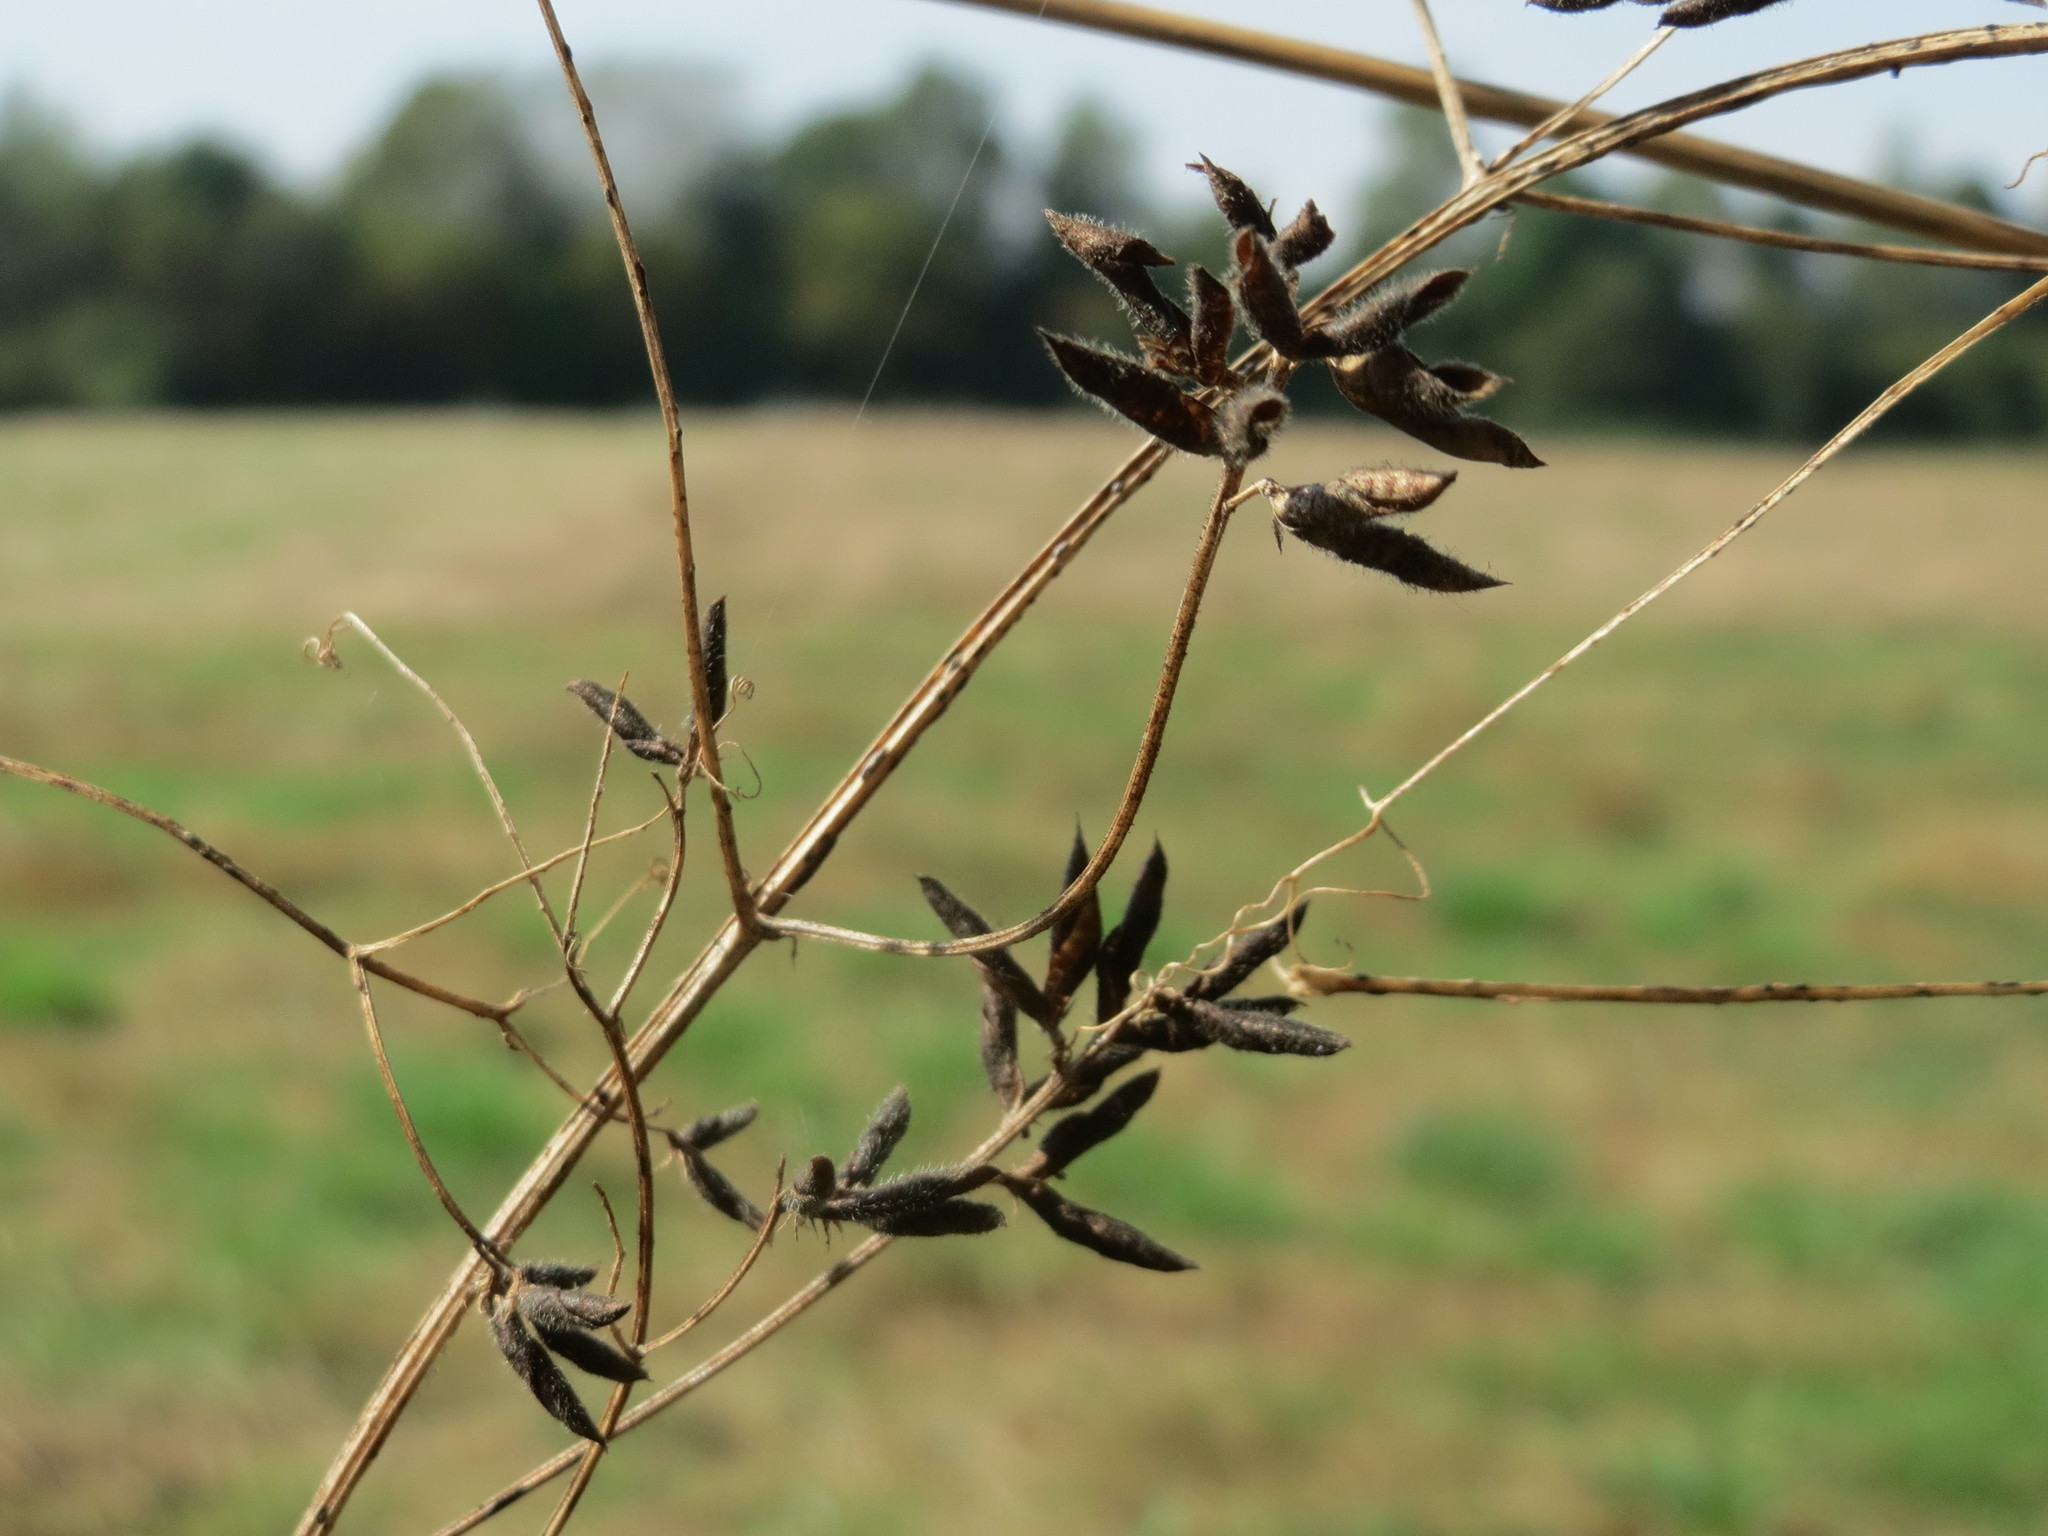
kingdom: Plantae
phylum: Tracheophyta
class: Magnoliopsida
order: Fabales
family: Fabaceae
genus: Vicia
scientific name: Vicia hirsuta
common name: Tiny vetch
